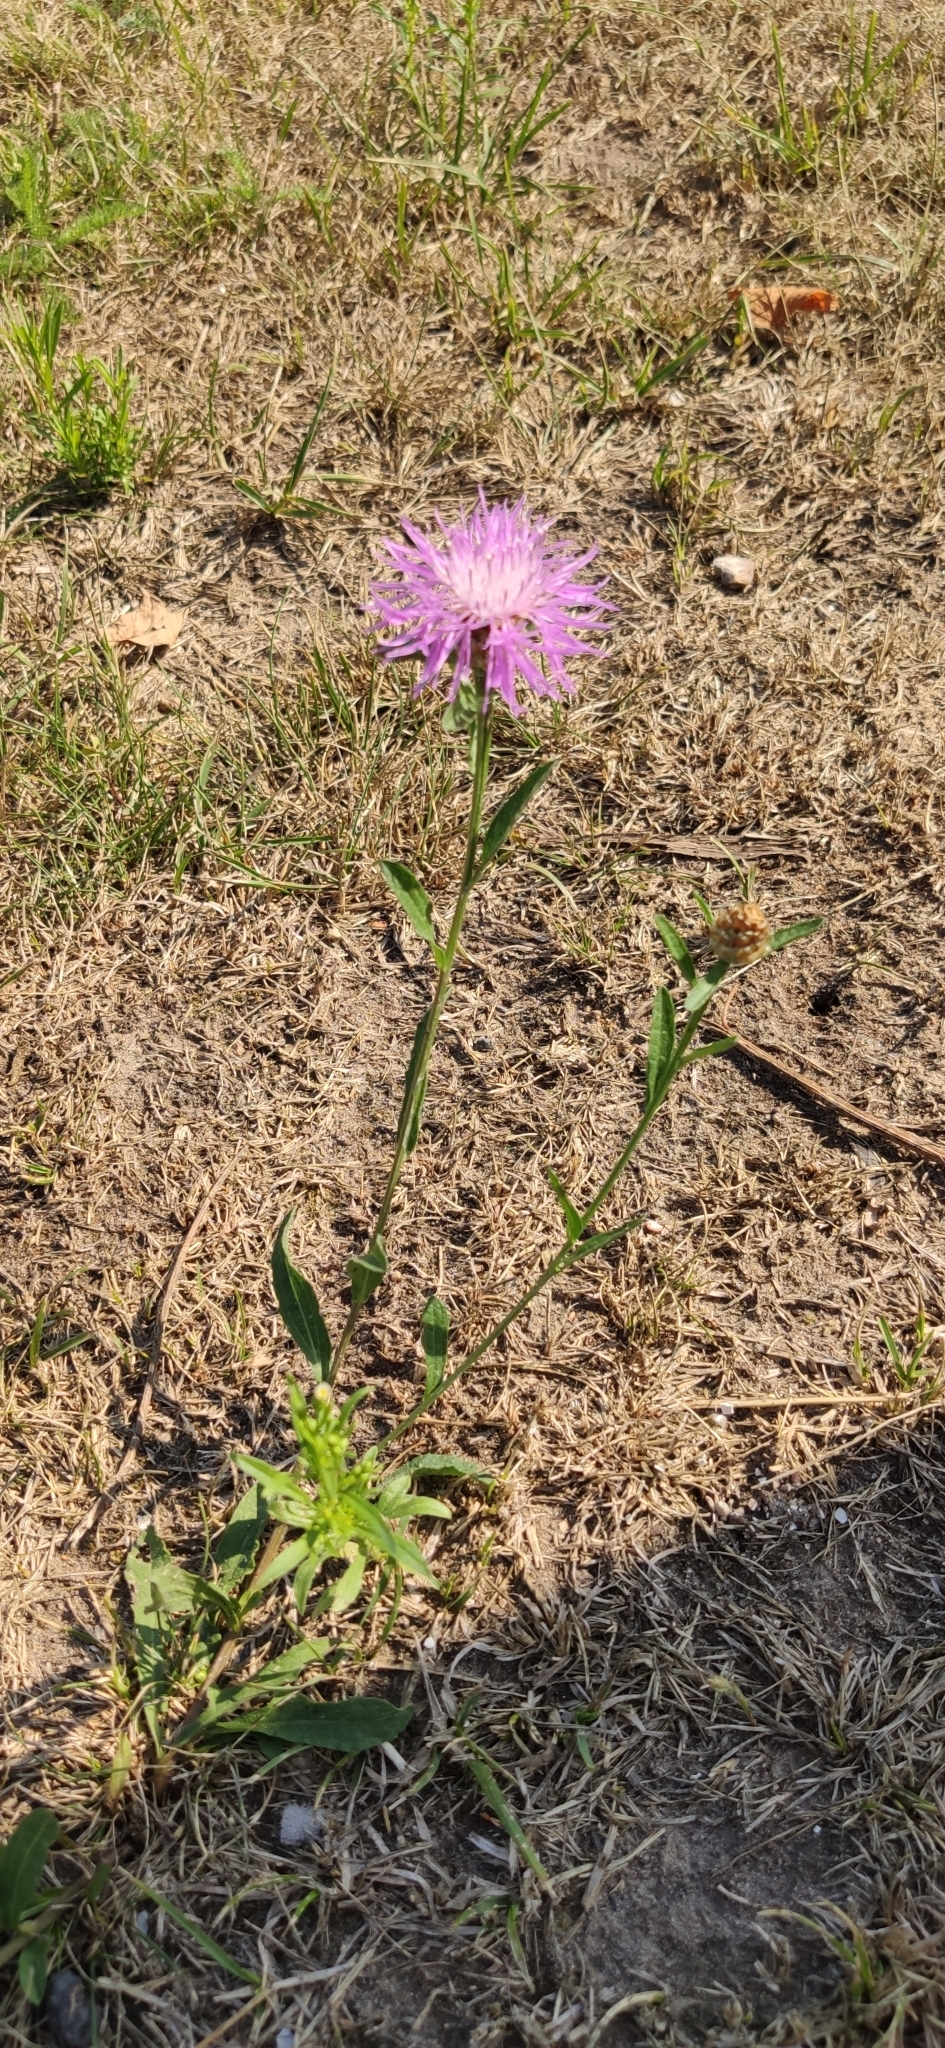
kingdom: Plantae
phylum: Tracheophyta
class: Magnoliopsida
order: Asterales
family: Asteraceae
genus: Centaurea
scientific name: Centaurea jacea
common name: Brown knapweed
